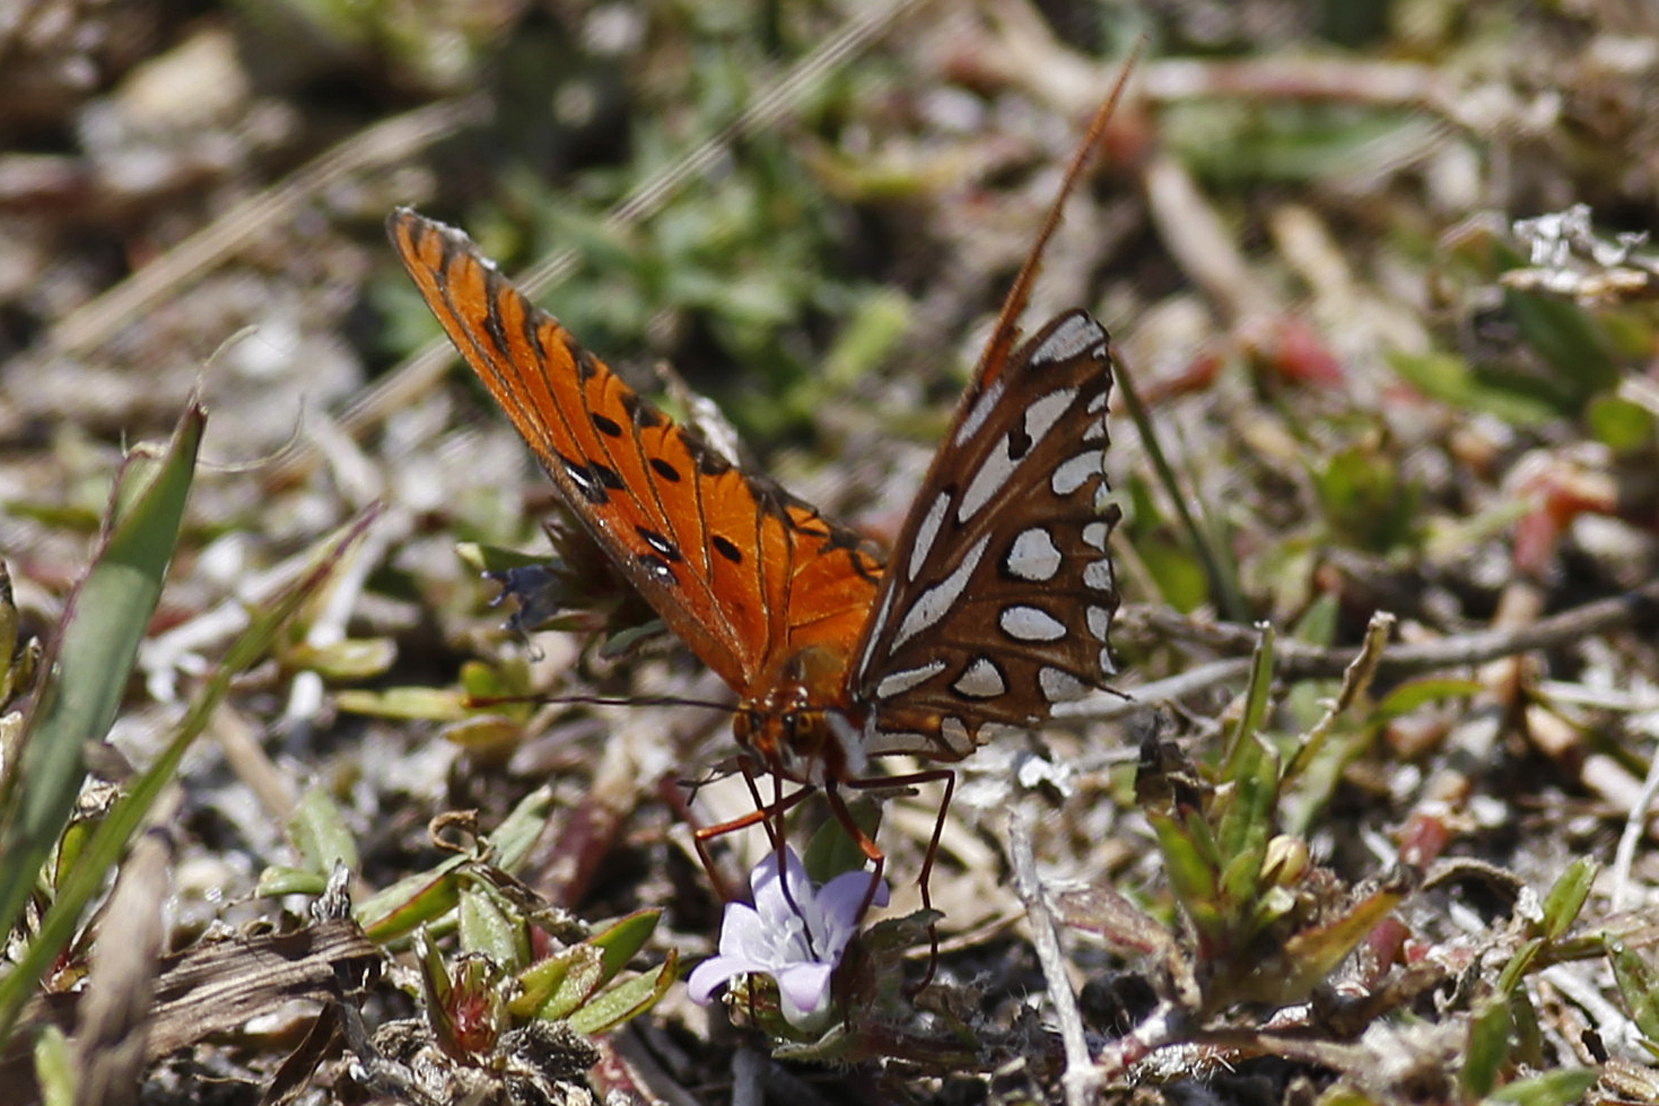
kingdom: Animalia
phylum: Arthropoda
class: Insecta
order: Lepidoptera
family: Nymphalidae
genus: Dione
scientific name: Dione vanillae
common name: Gulf fritillary
